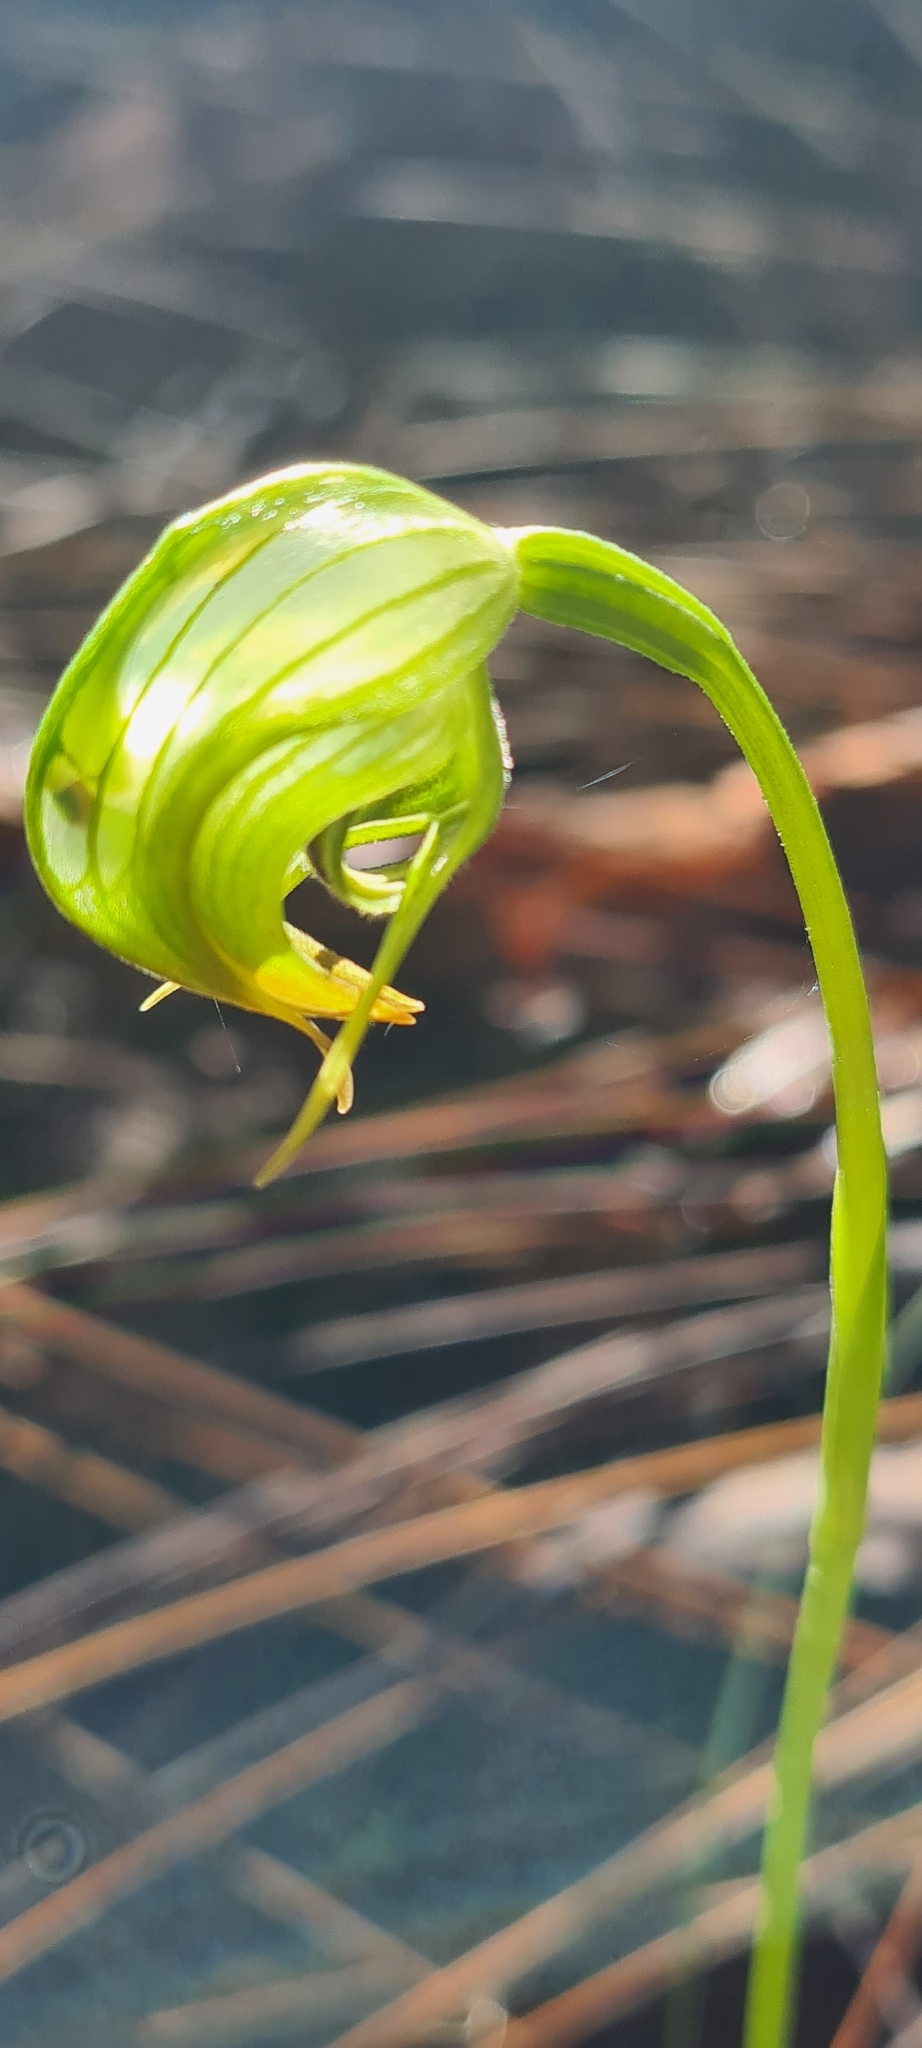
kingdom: Plantae
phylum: Tracheophyta
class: Liliopsida
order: Asparagales
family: Orchidaceae
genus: Pterostylis
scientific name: Pterostylis nutans
